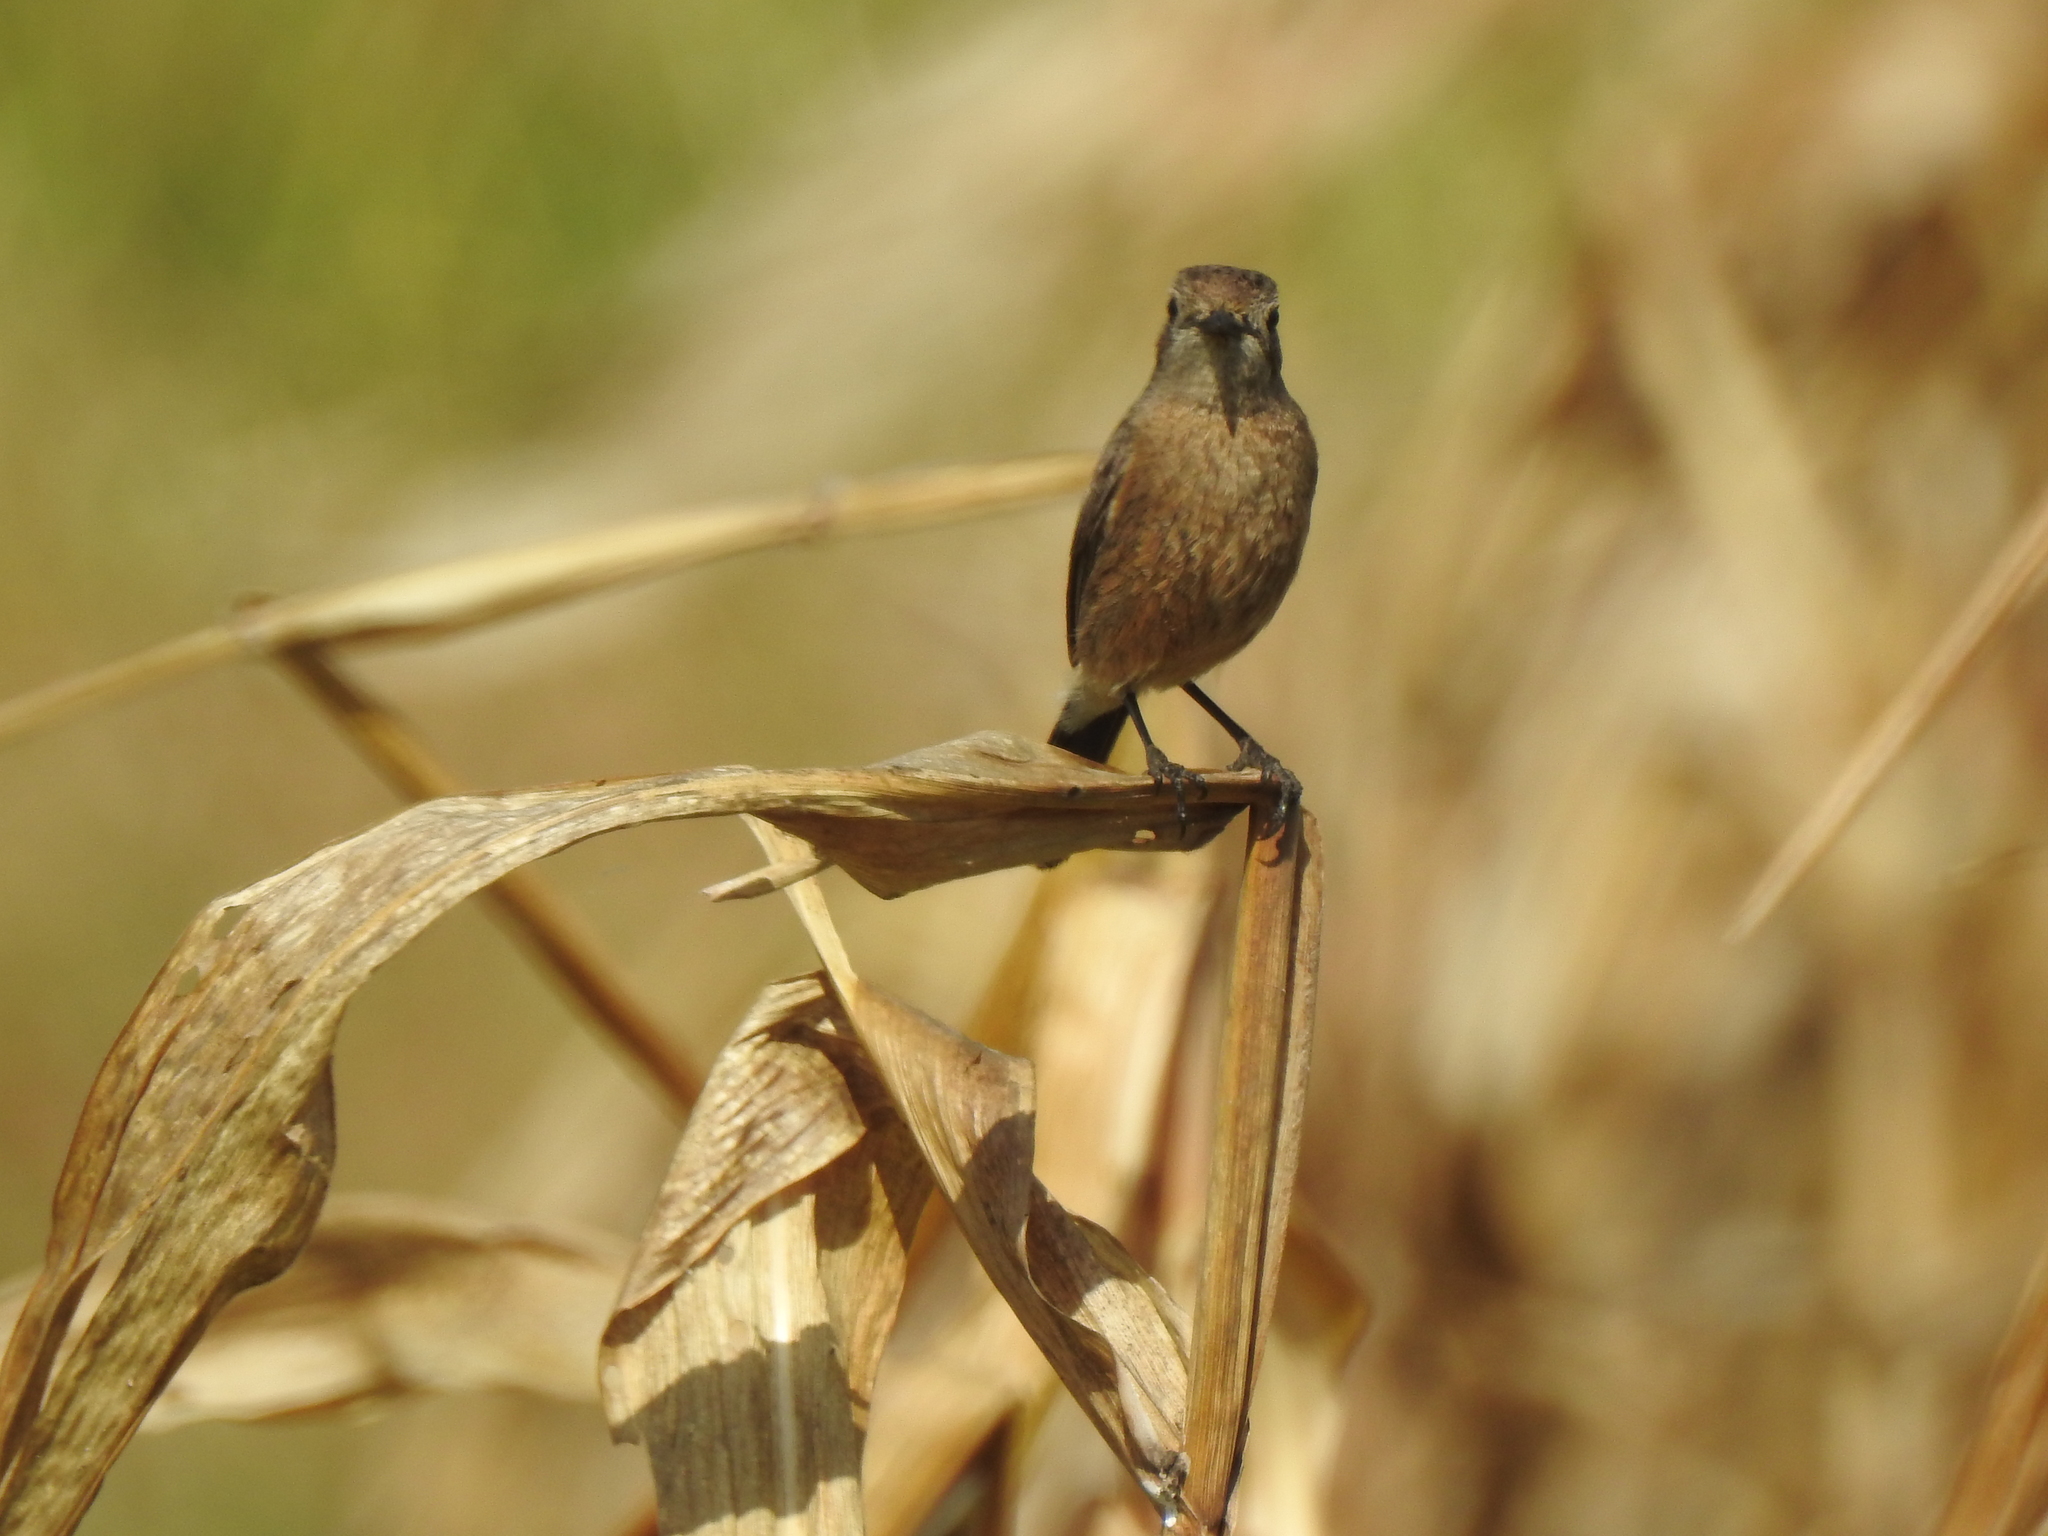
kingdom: Animalia
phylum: Chordata
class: Aves
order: Passeriformes
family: Muscicapidae
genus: Saxicola
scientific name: Saxicola caprata
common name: Pied bush chat
